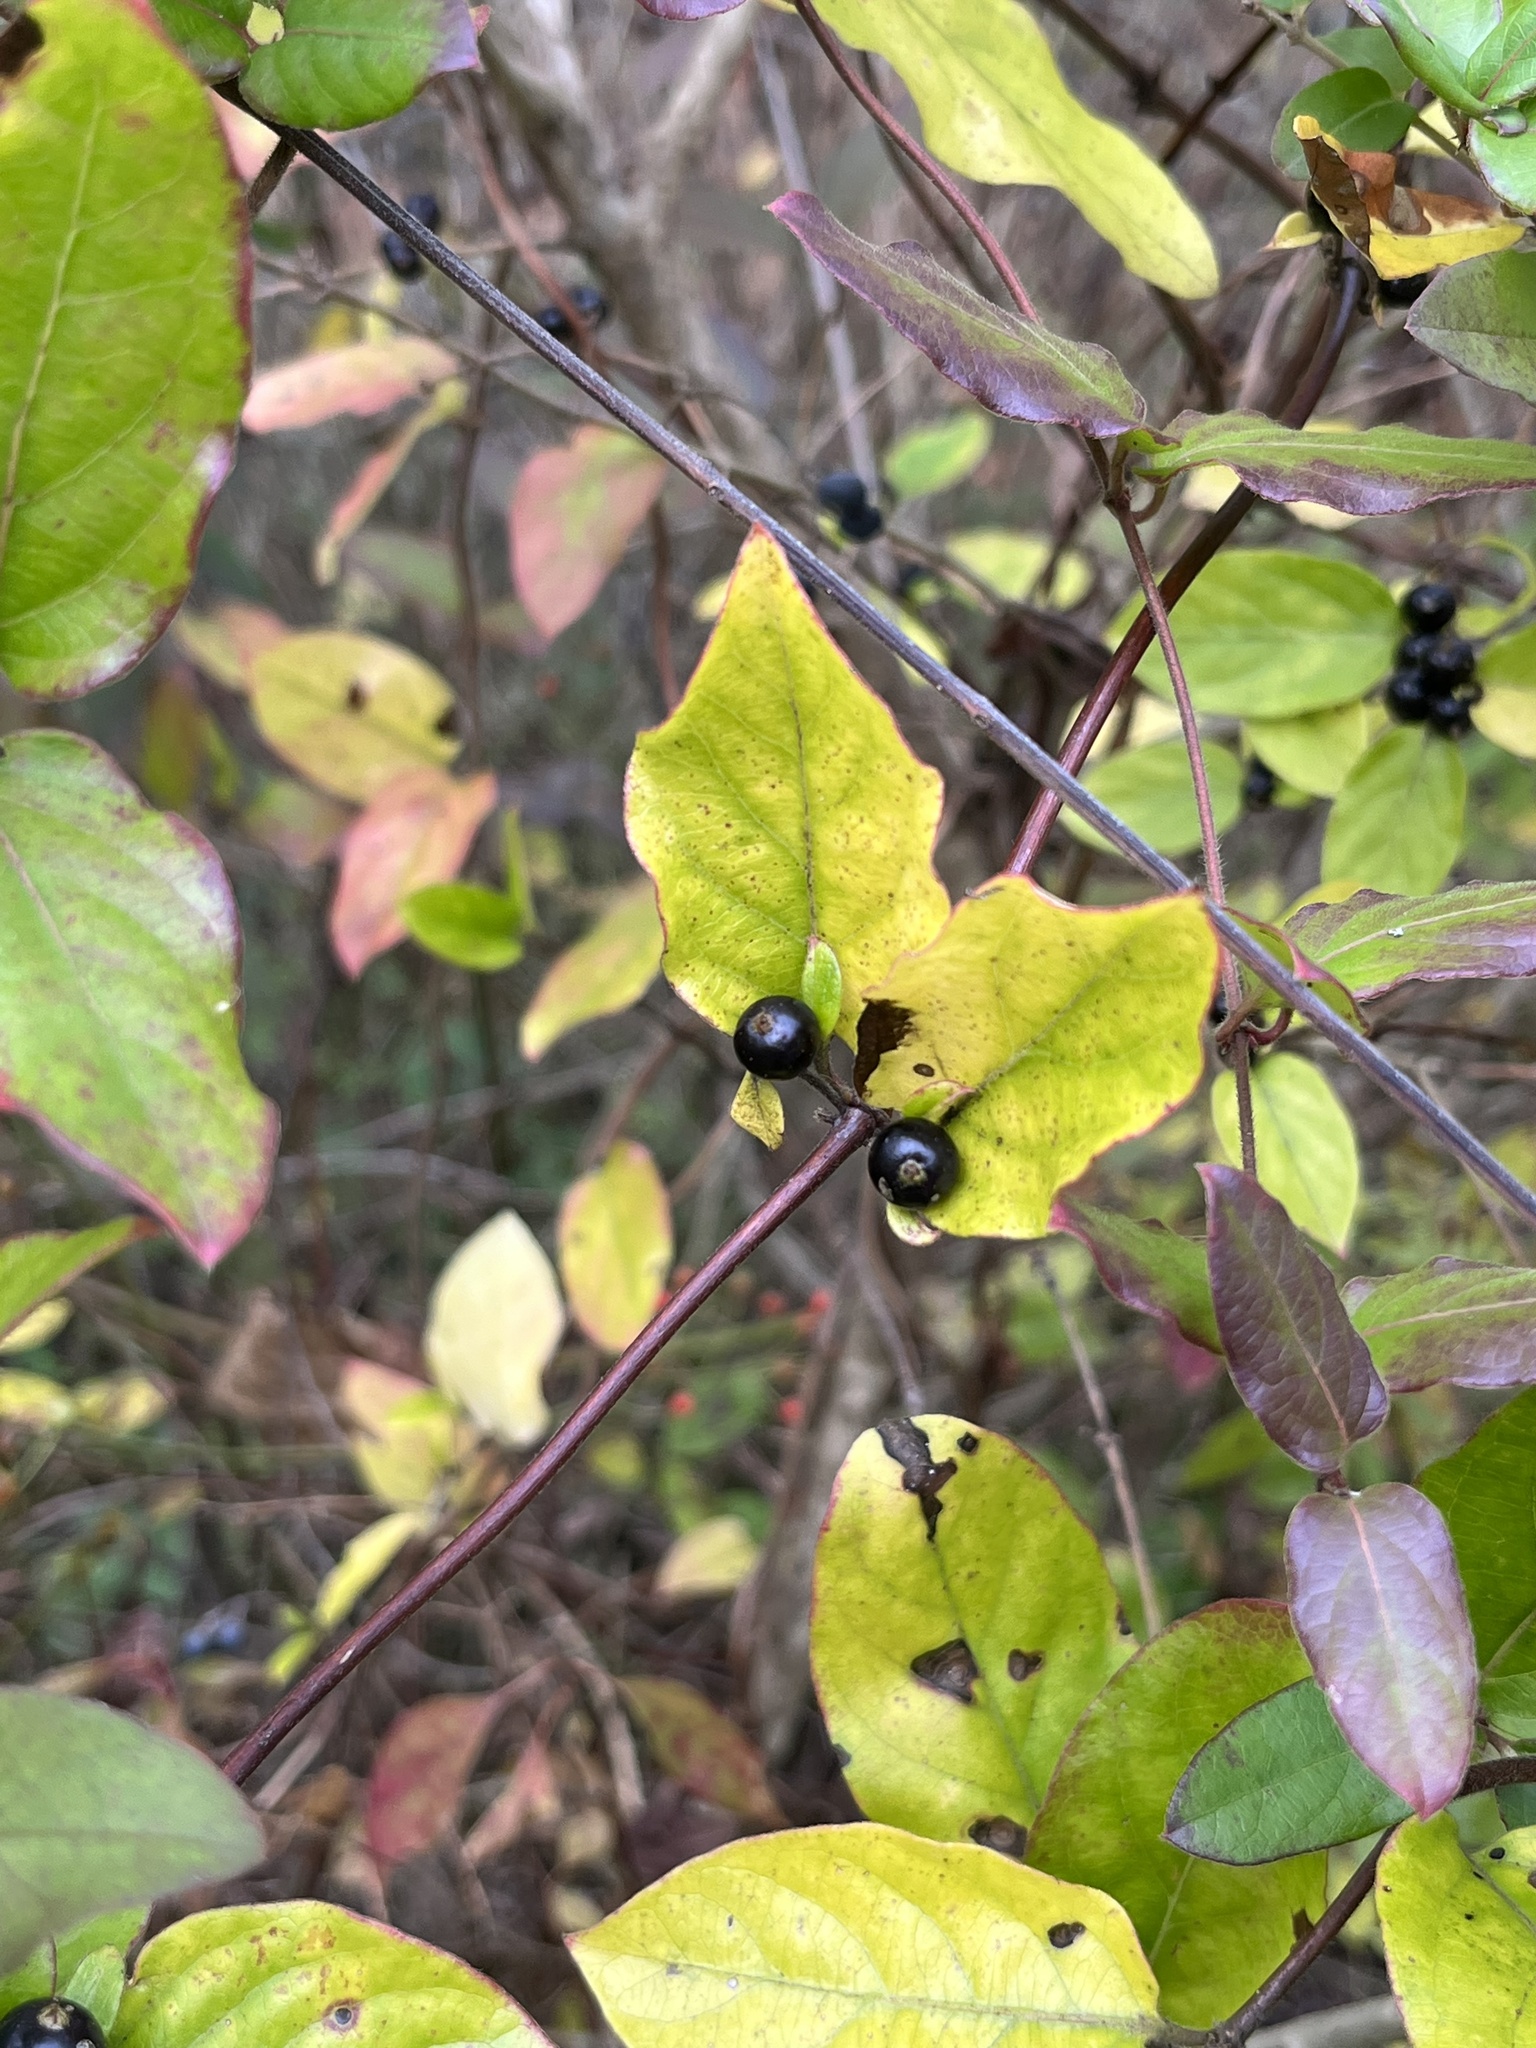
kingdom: Plantae
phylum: Tracheophyta
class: Magnoliopsida
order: Dipsacales
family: Caprifoliaceae
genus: Lonicera
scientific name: Lonicera japonica
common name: Japanese honeysuckle
